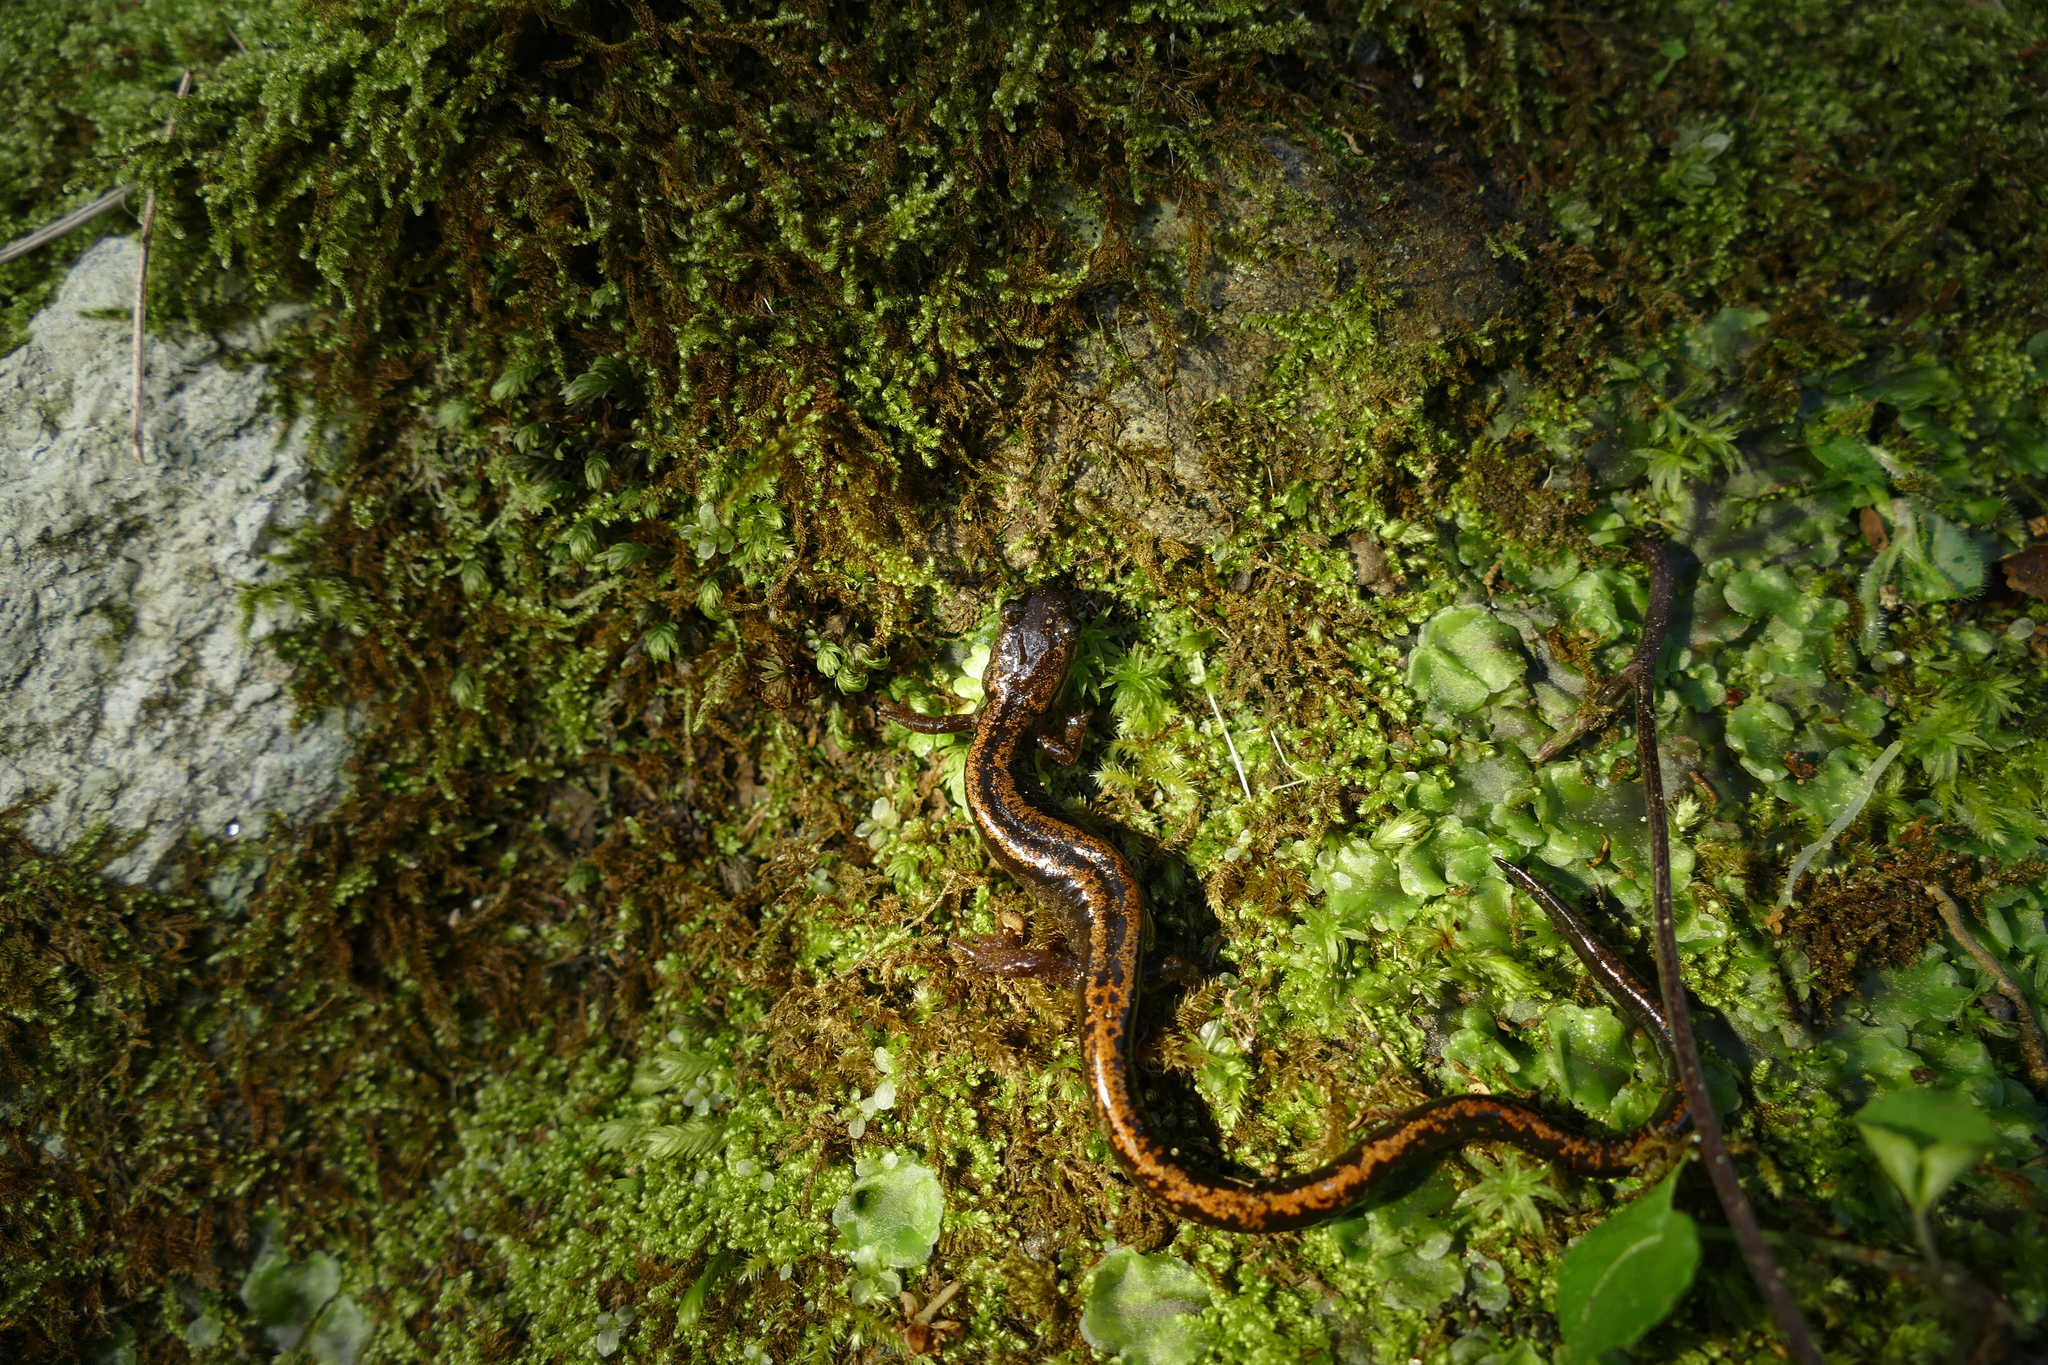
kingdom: Animalia
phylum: Chordata
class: Amphibia
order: Caudata
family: Salamandridae
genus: Chioglossa
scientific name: Chioglossa lusitanica
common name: Gold-striped salamander
